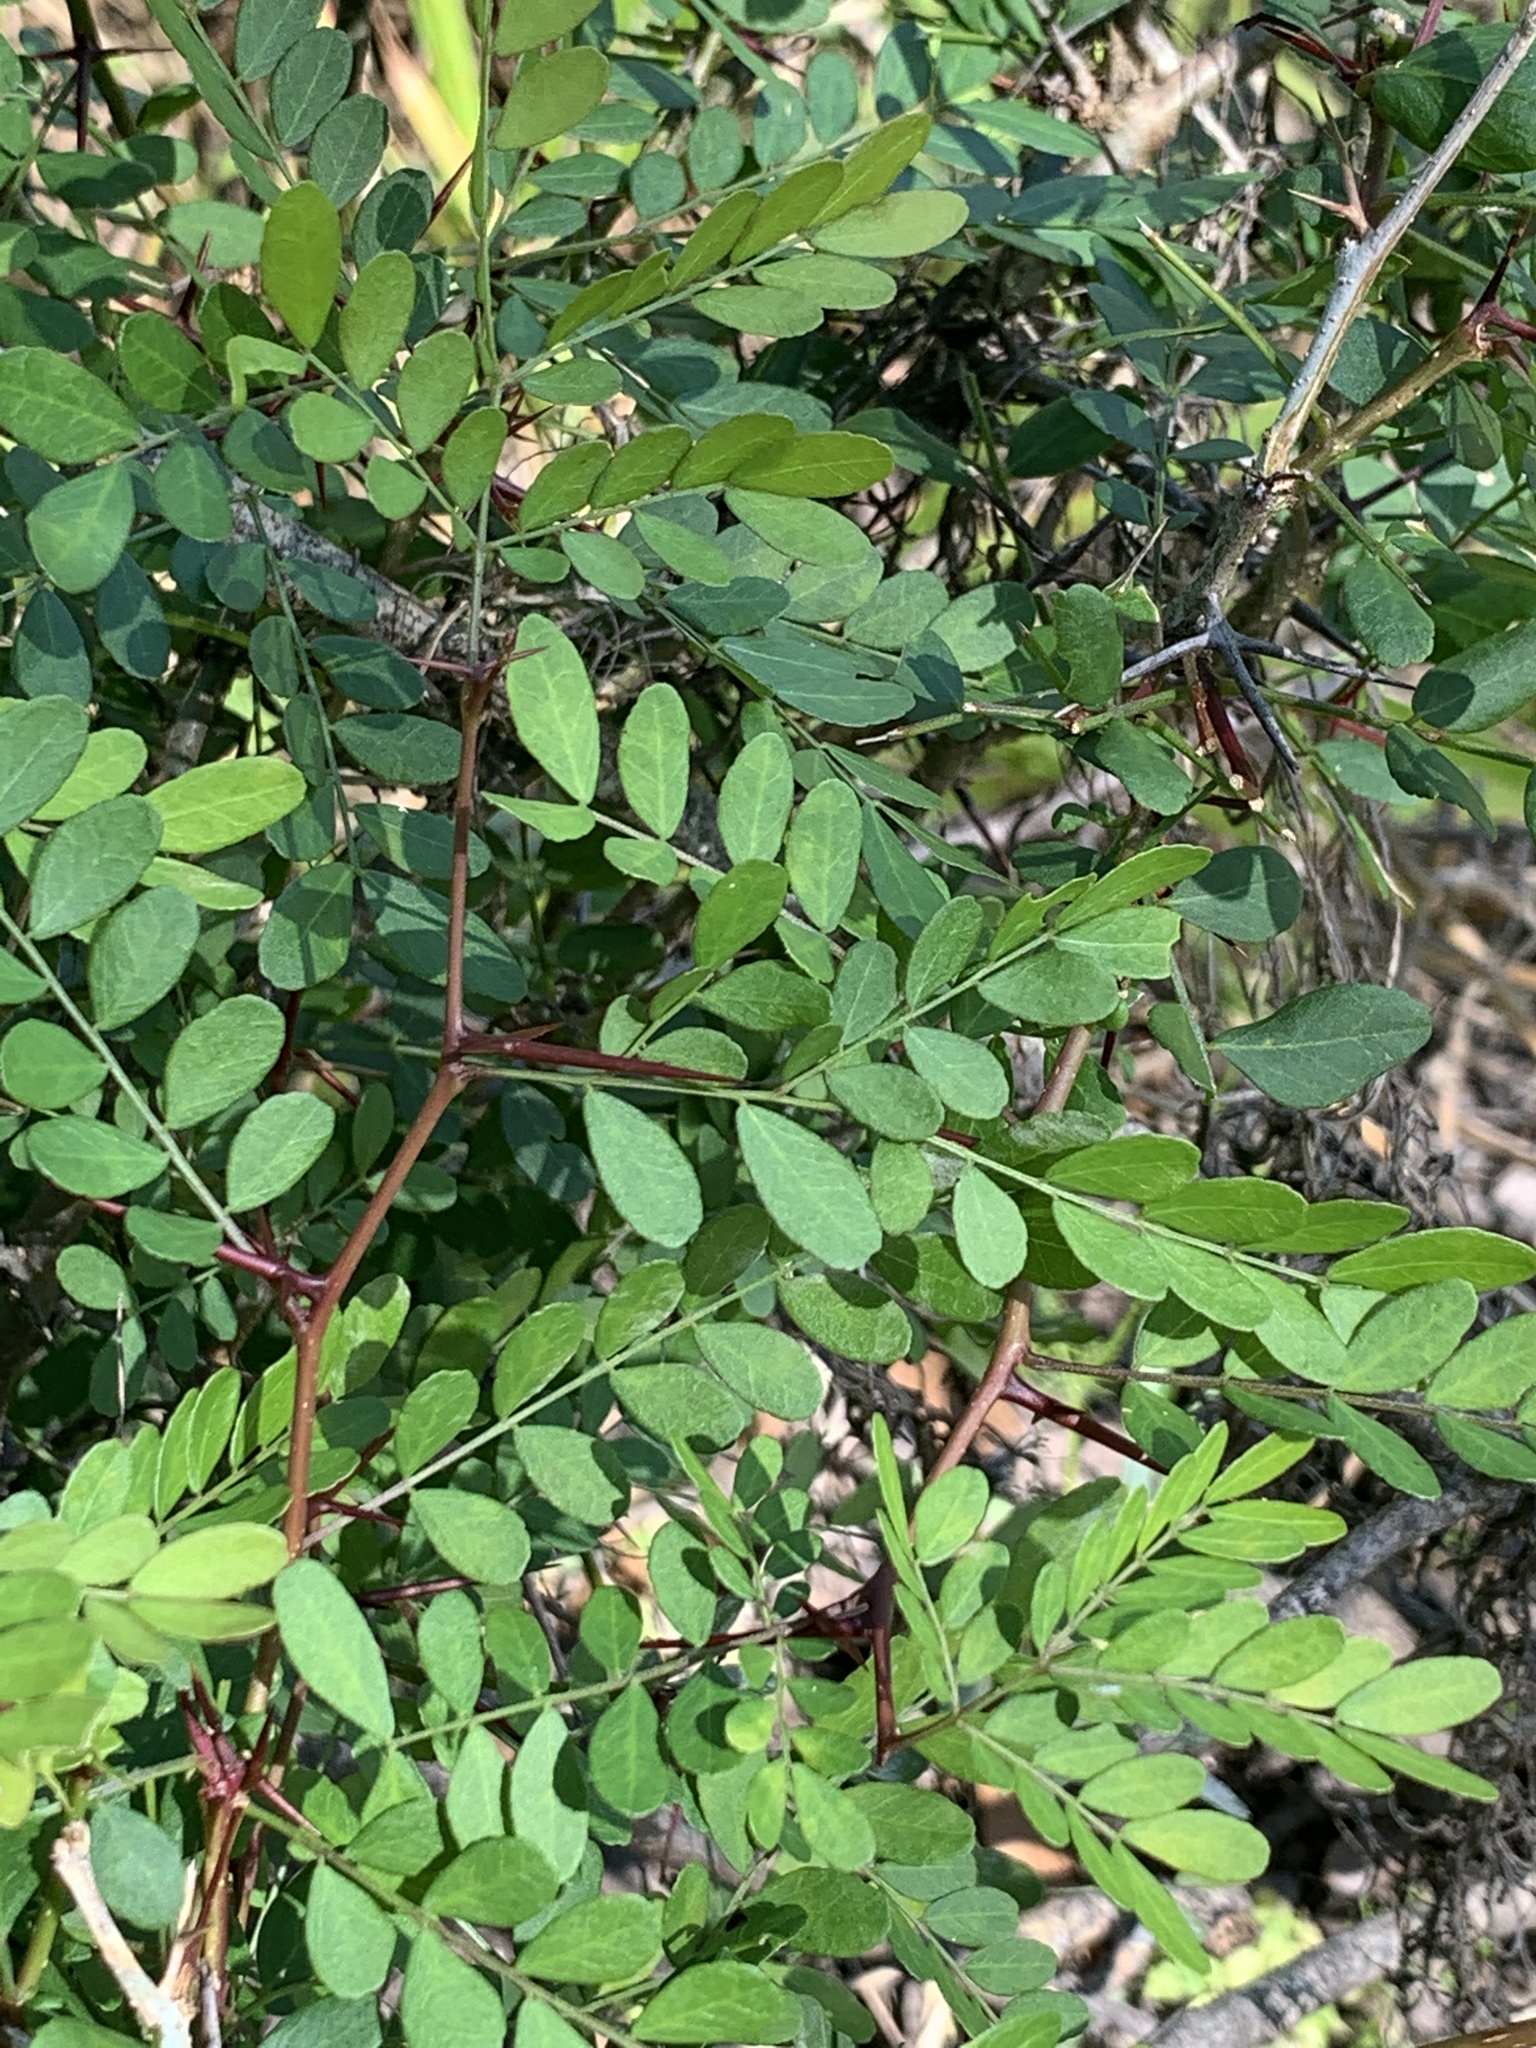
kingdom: Plantae
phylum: Tracheophyta
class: Magnoliopsida
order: Fabales
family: Fabaceae
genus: Gleditsia
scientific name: Gleditsia aquatica
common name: Swamp-locust
